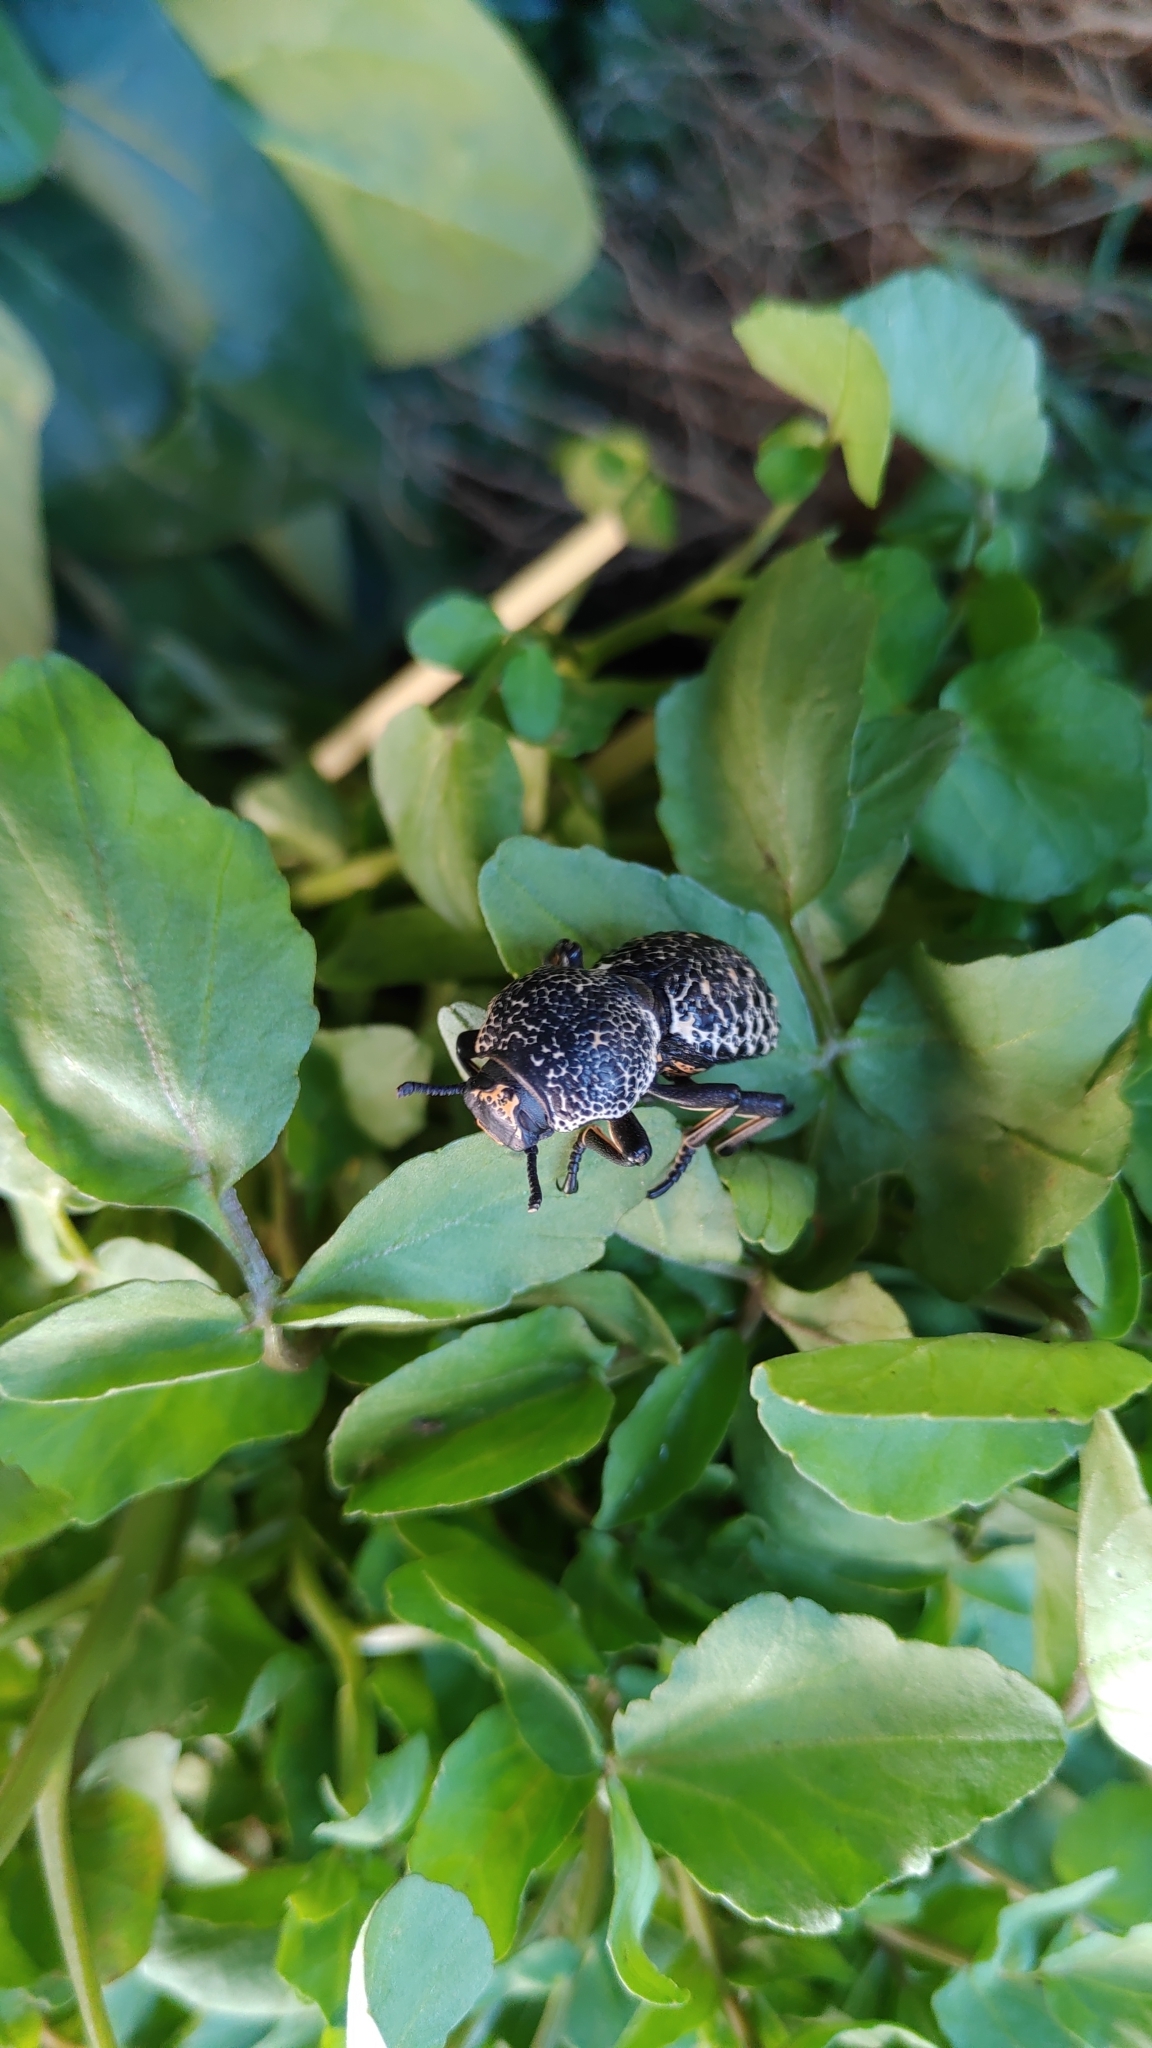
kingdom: Animalia
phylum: Arthropoda
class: Insecta
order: Coleoptera
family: Zopheridae
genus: Zopherus
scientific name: Zopherus
